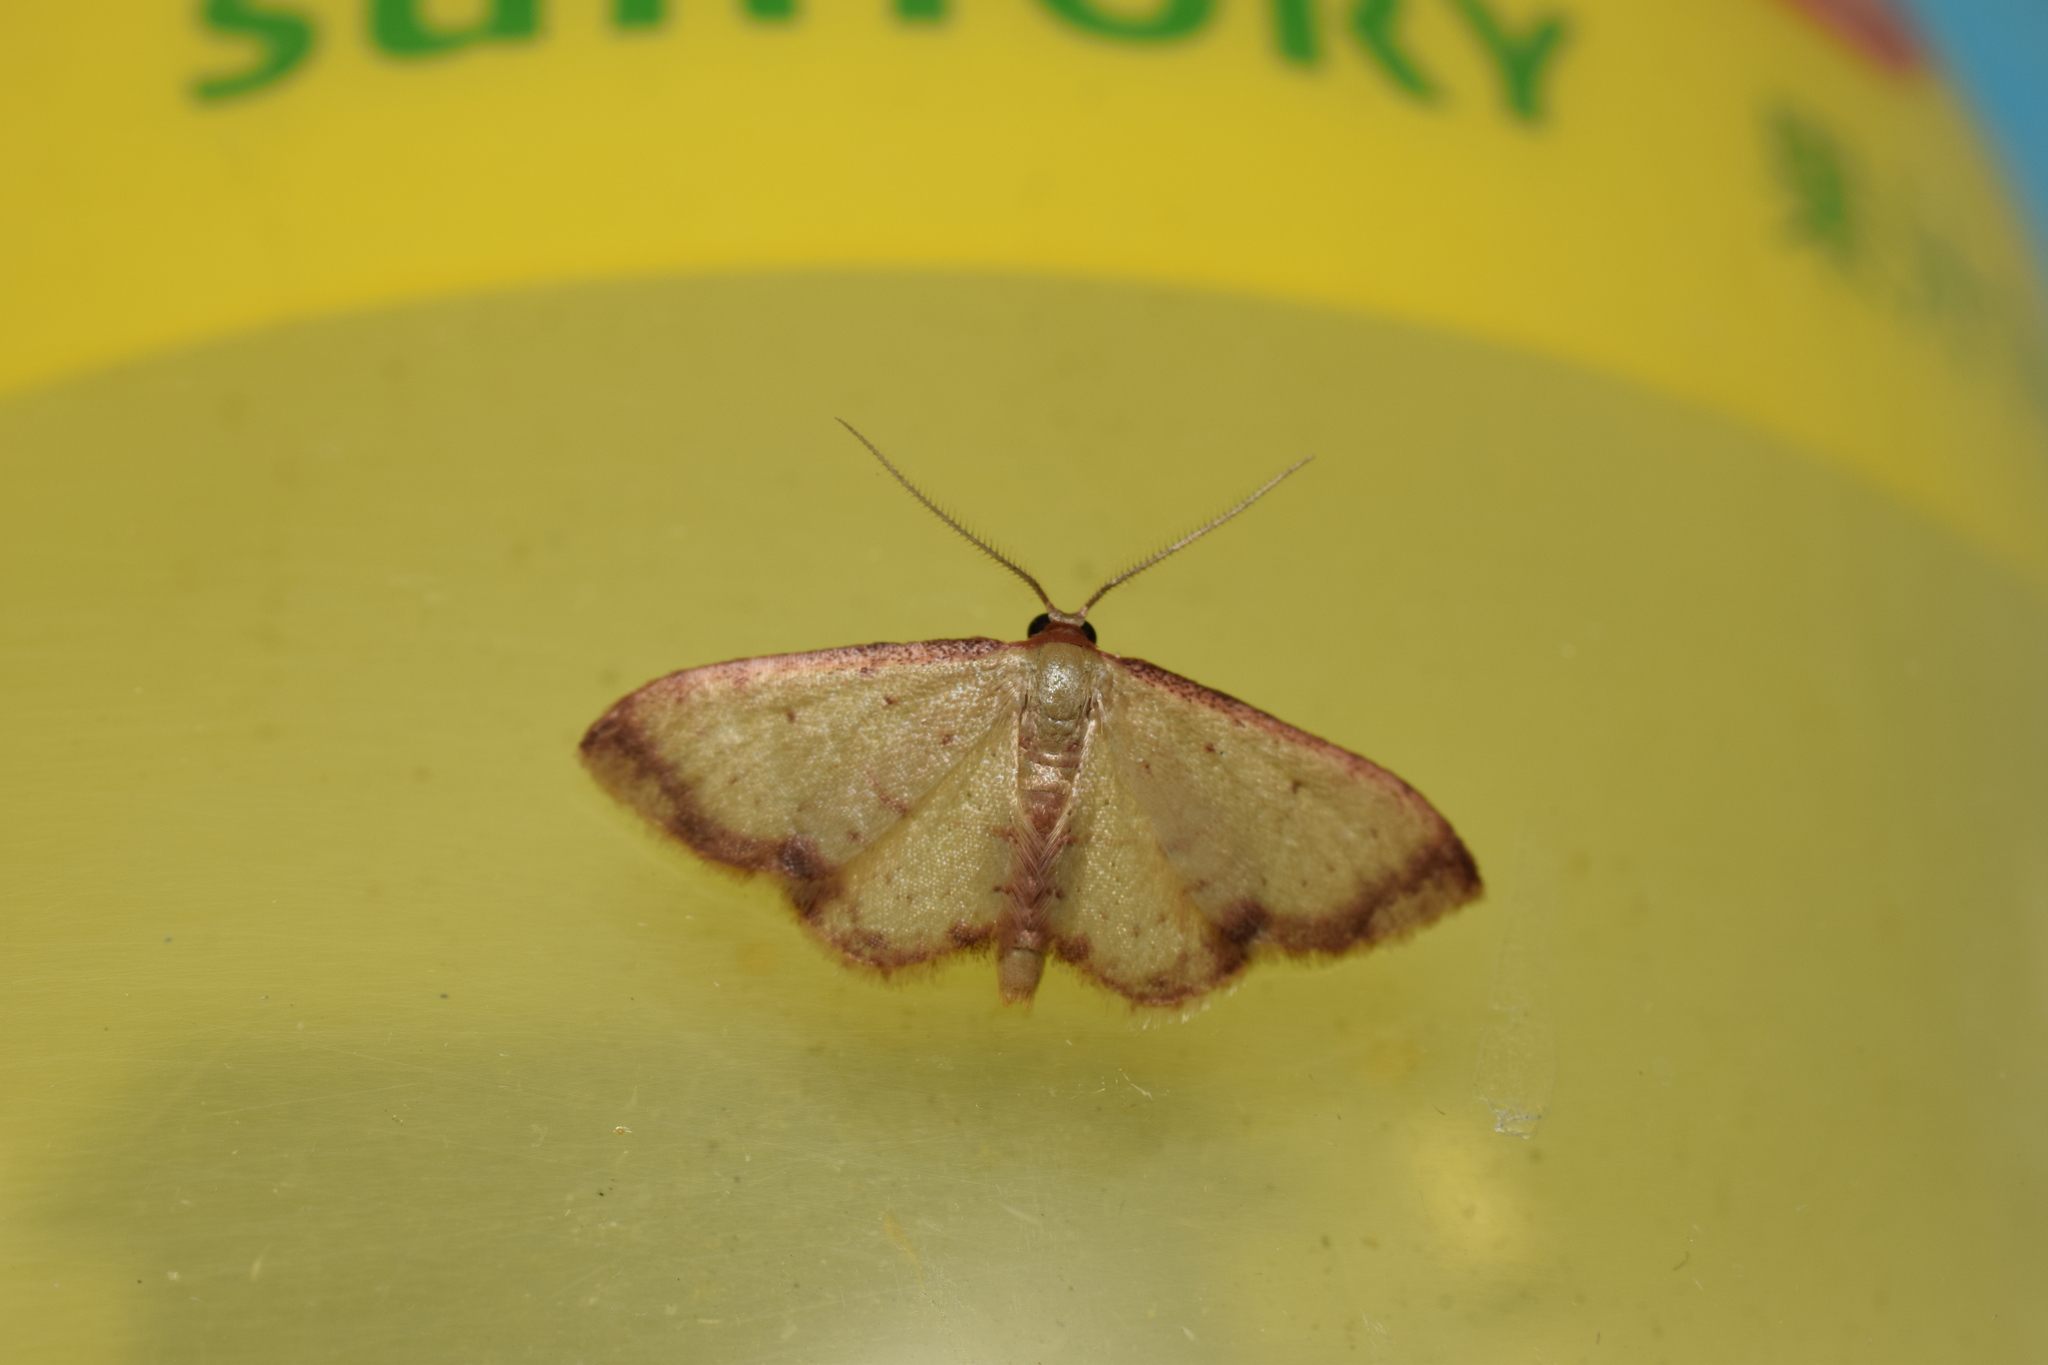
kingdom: Animalia
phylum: Arthropoda
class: Insecta
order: Lepidoptera
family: Geometridae
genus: Idaea
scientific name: Idaea impexa
